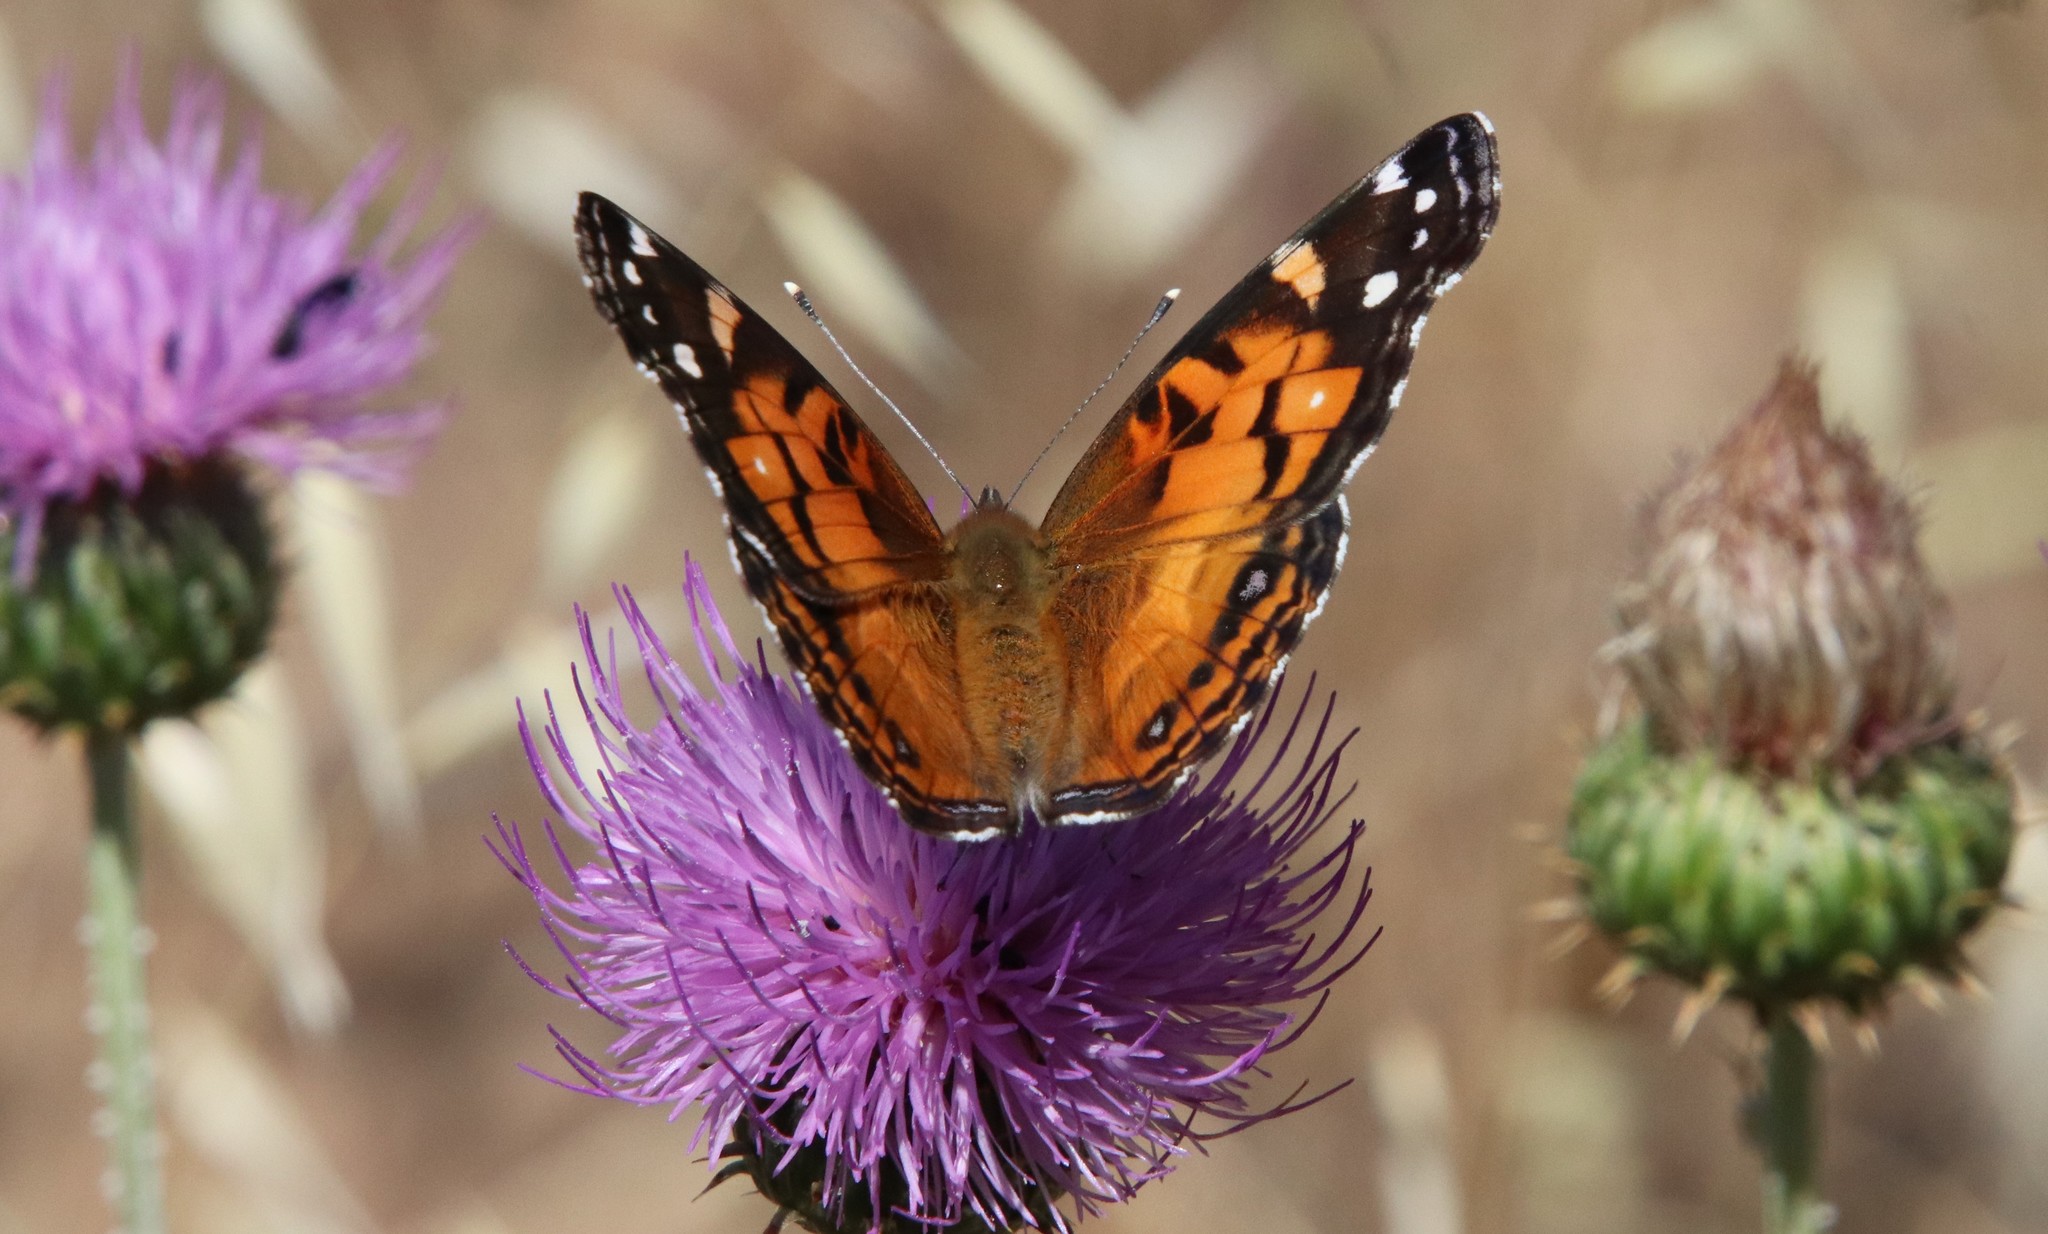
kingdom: Animalia
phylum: Arthropoda
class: Insecta
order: Lepidoptera
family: Nymphalidae
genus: Vanessa
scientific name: Vanessa virginiensis
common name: American lady
